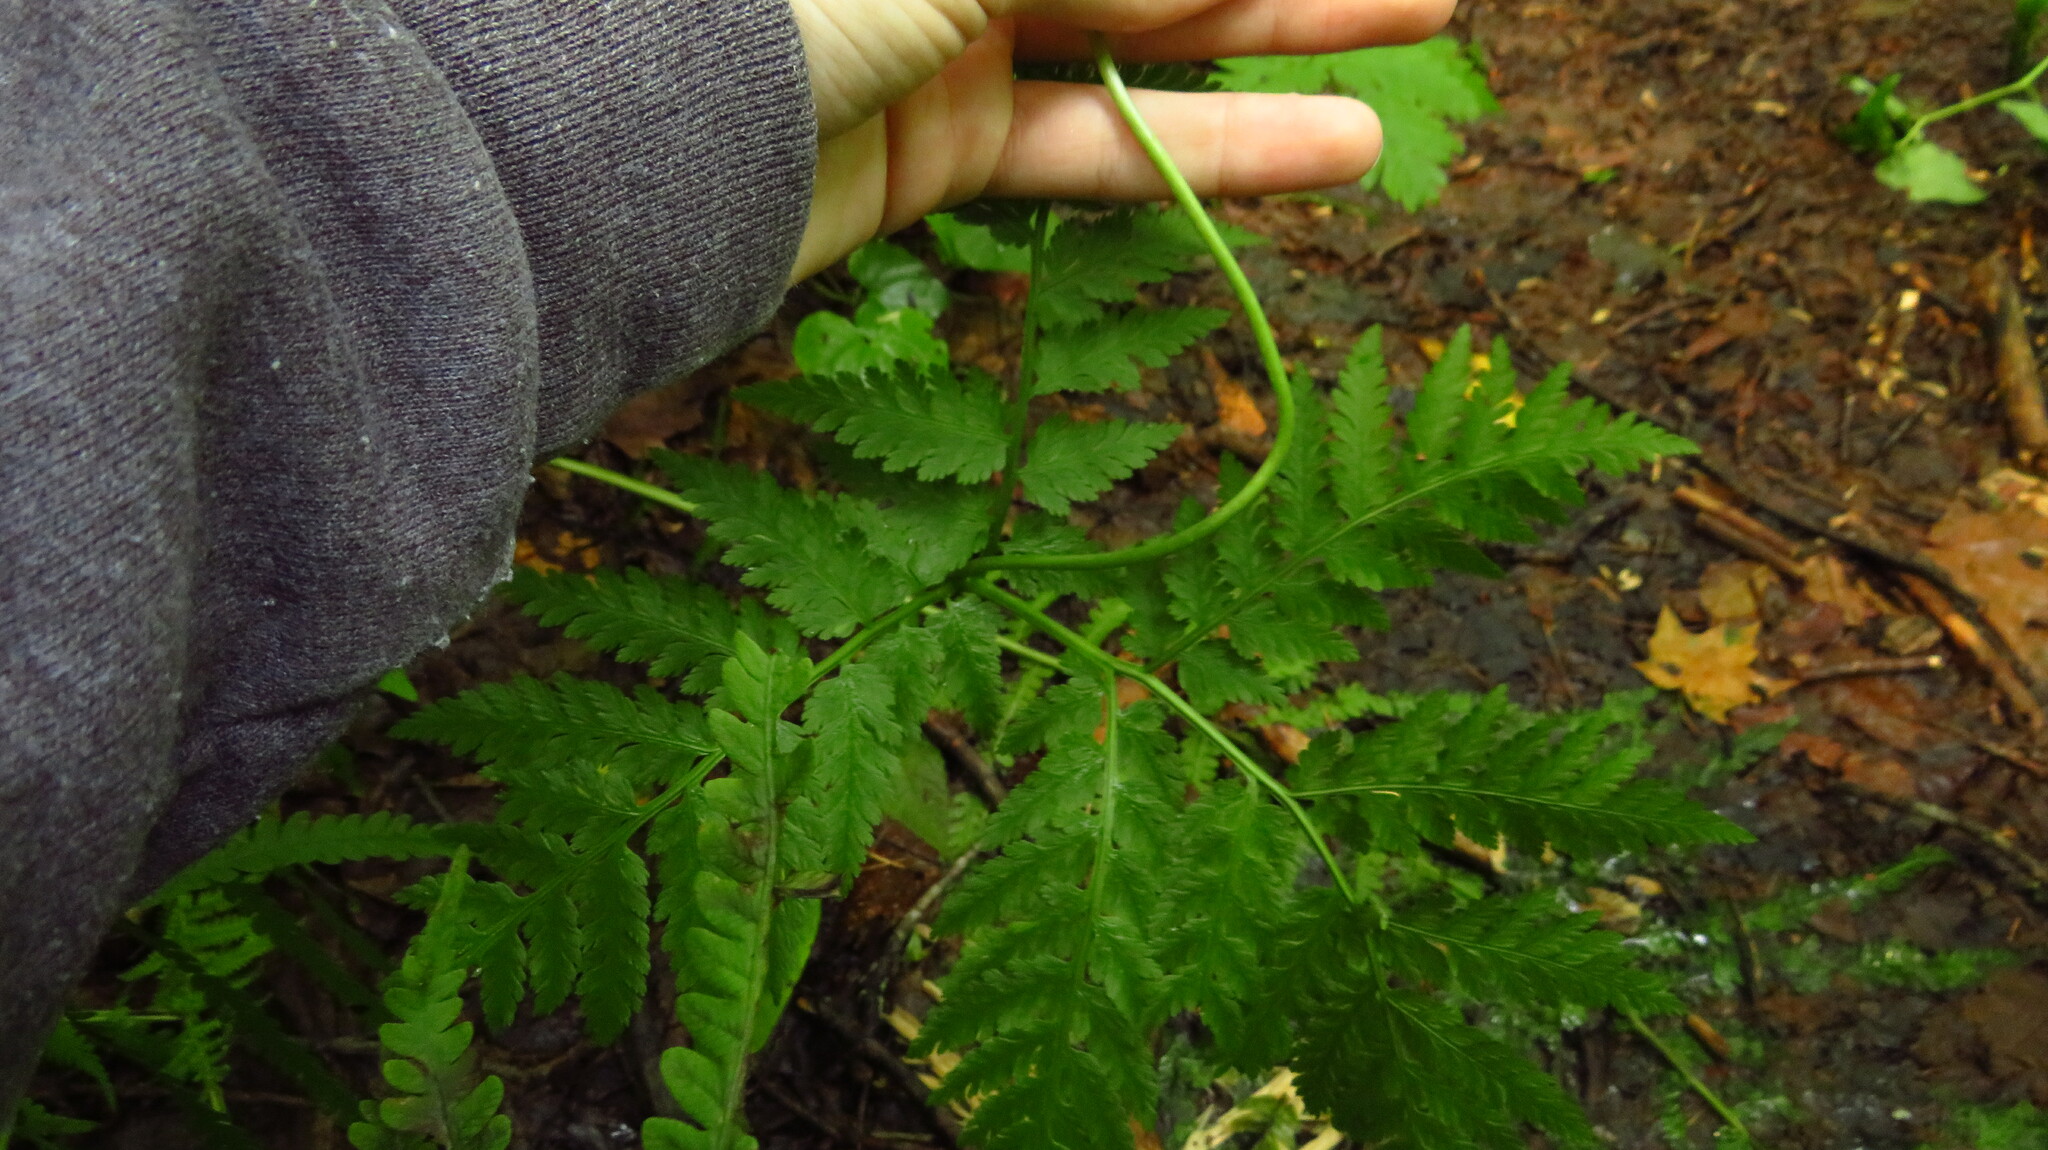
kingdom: Plantae
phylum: Tracheophyta
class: Polypodiopsida
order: Ophioglossales
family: Ophioglossaceae
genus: Botrypus
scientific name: Botrypus virginianus
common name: Common grapefern
